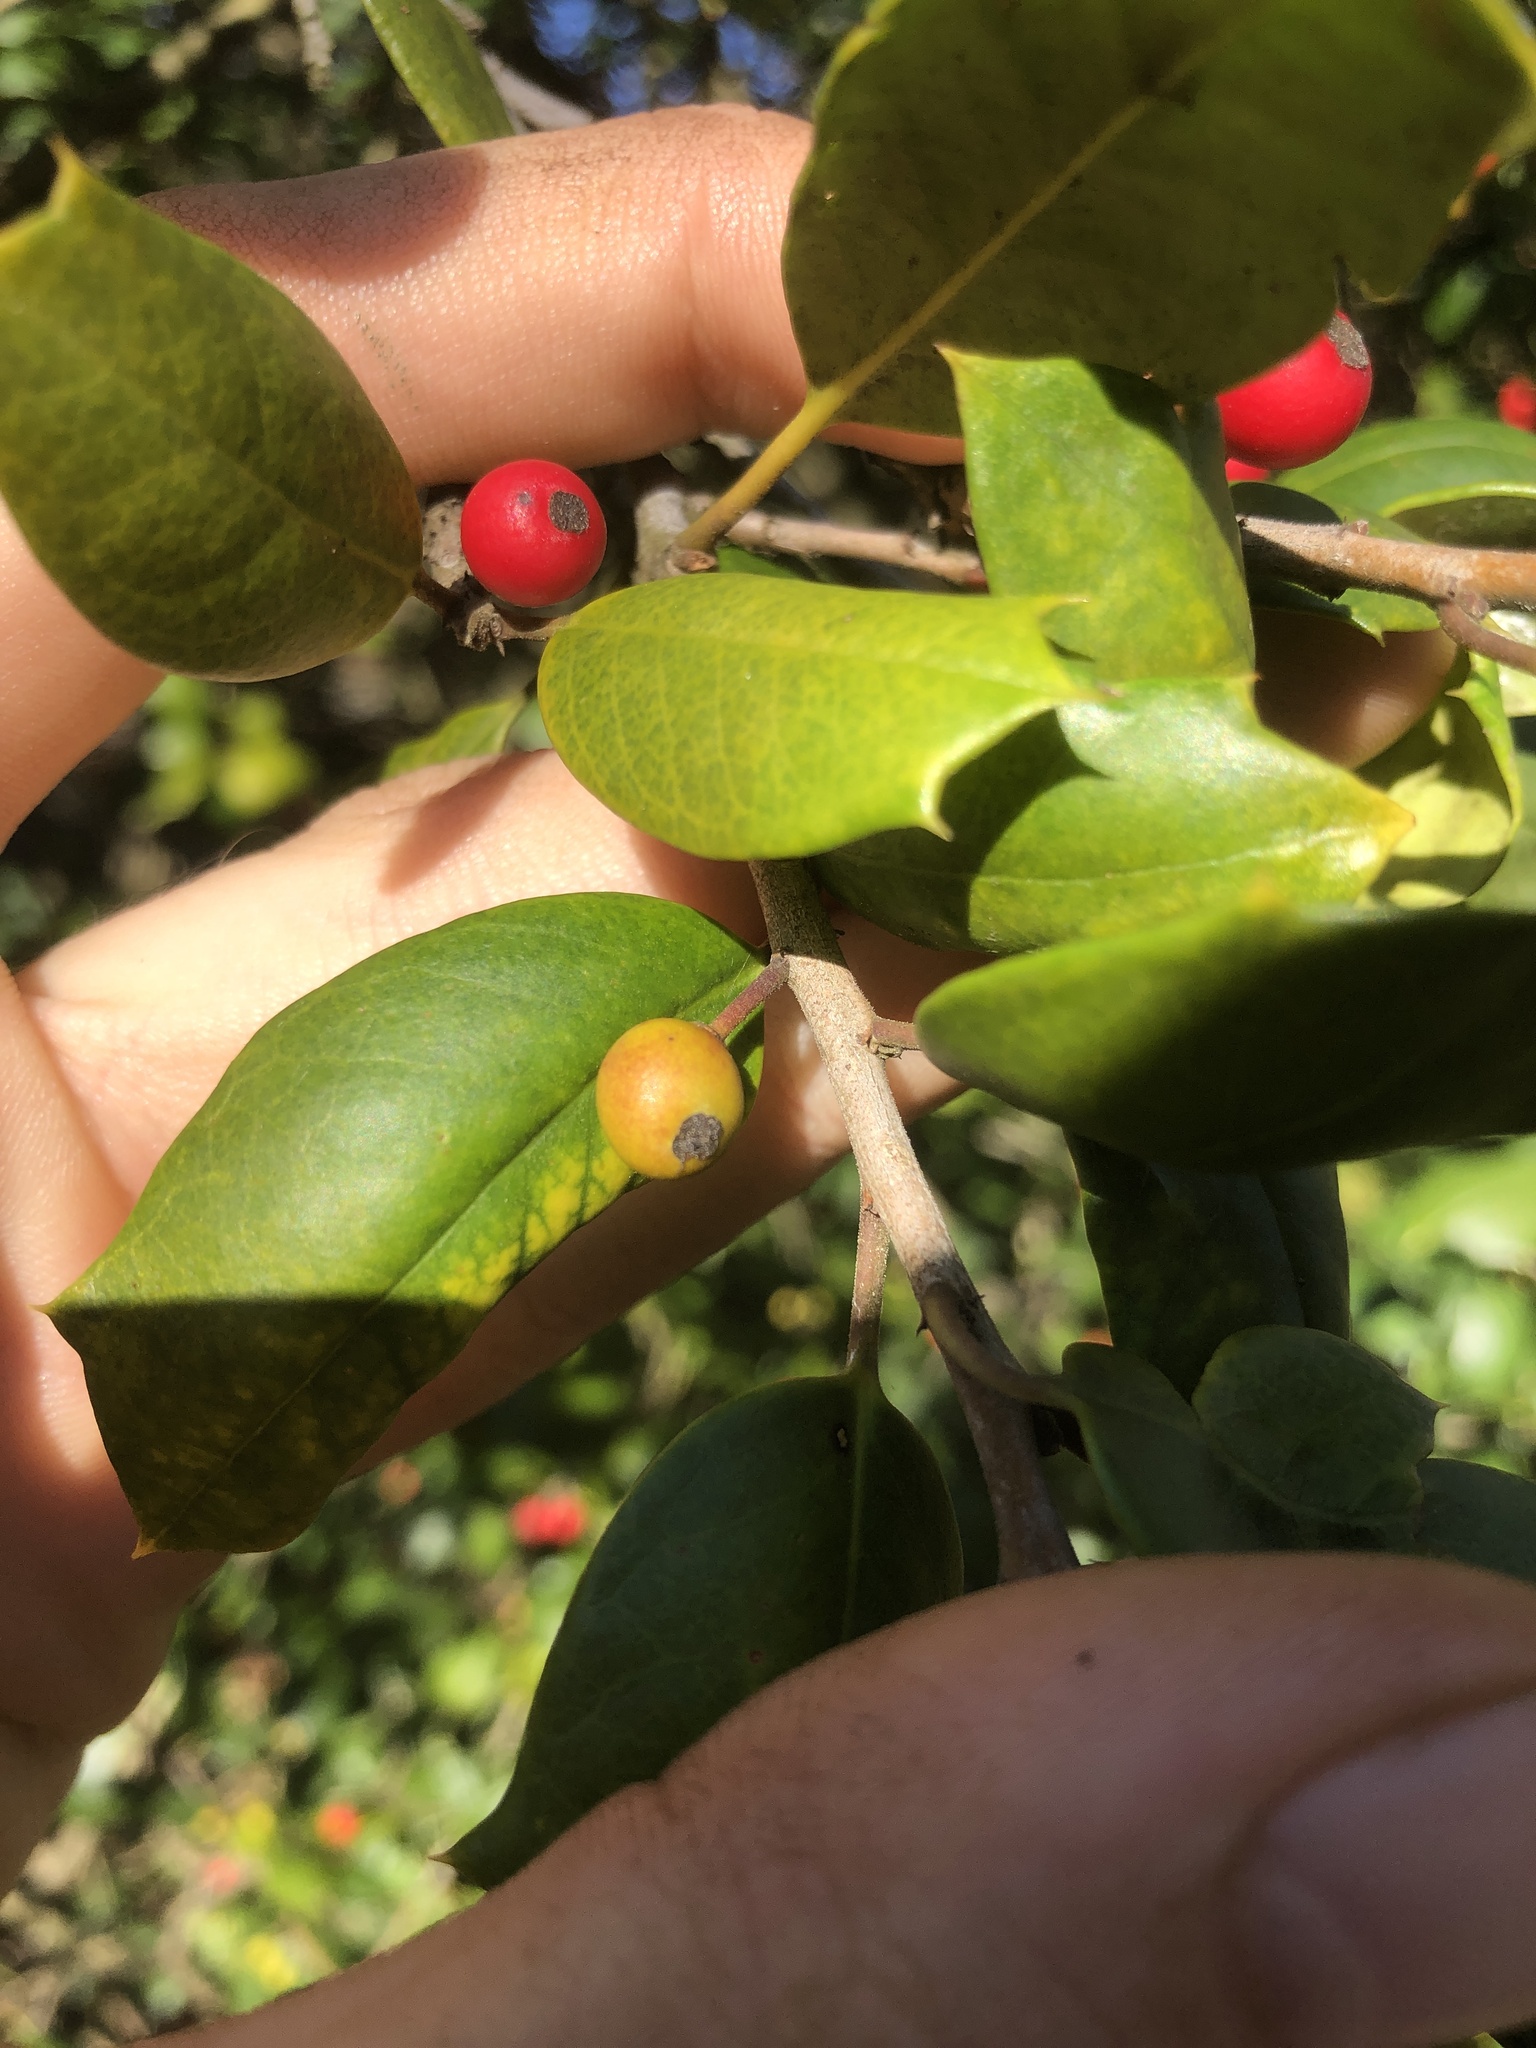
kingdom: Animalia
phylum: Arthropoda
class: Insecta
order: Diptera
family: Cecidomyiidae
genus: Asphondylia
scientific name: Asphondylia ilicicola
